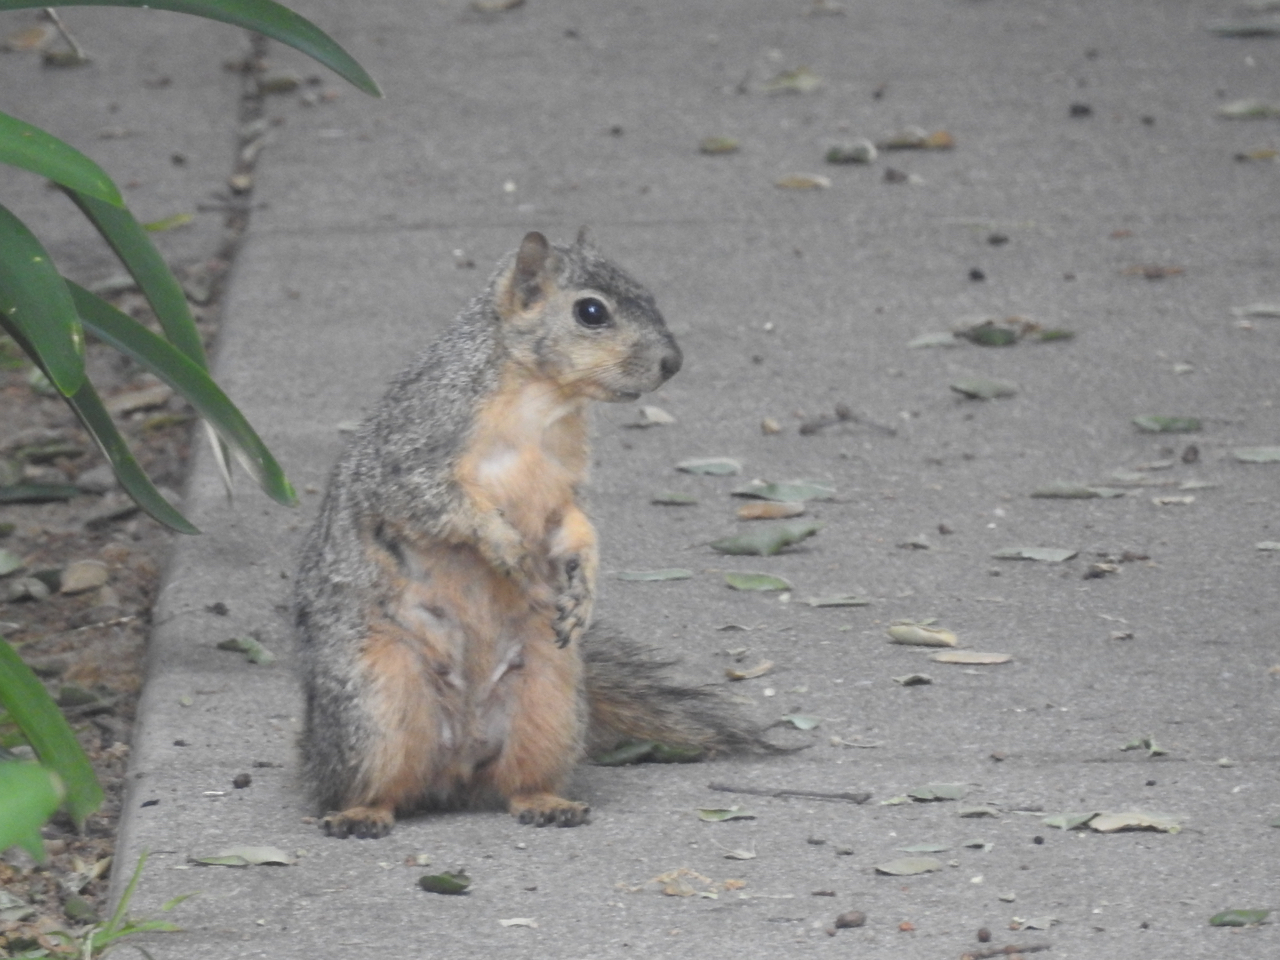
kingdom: Animalia
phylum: Chordata
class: Mammalia
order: Rodentia
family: Sciuridae
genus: Sciurus
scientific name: Sciurus niger
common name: Fox squirrel
